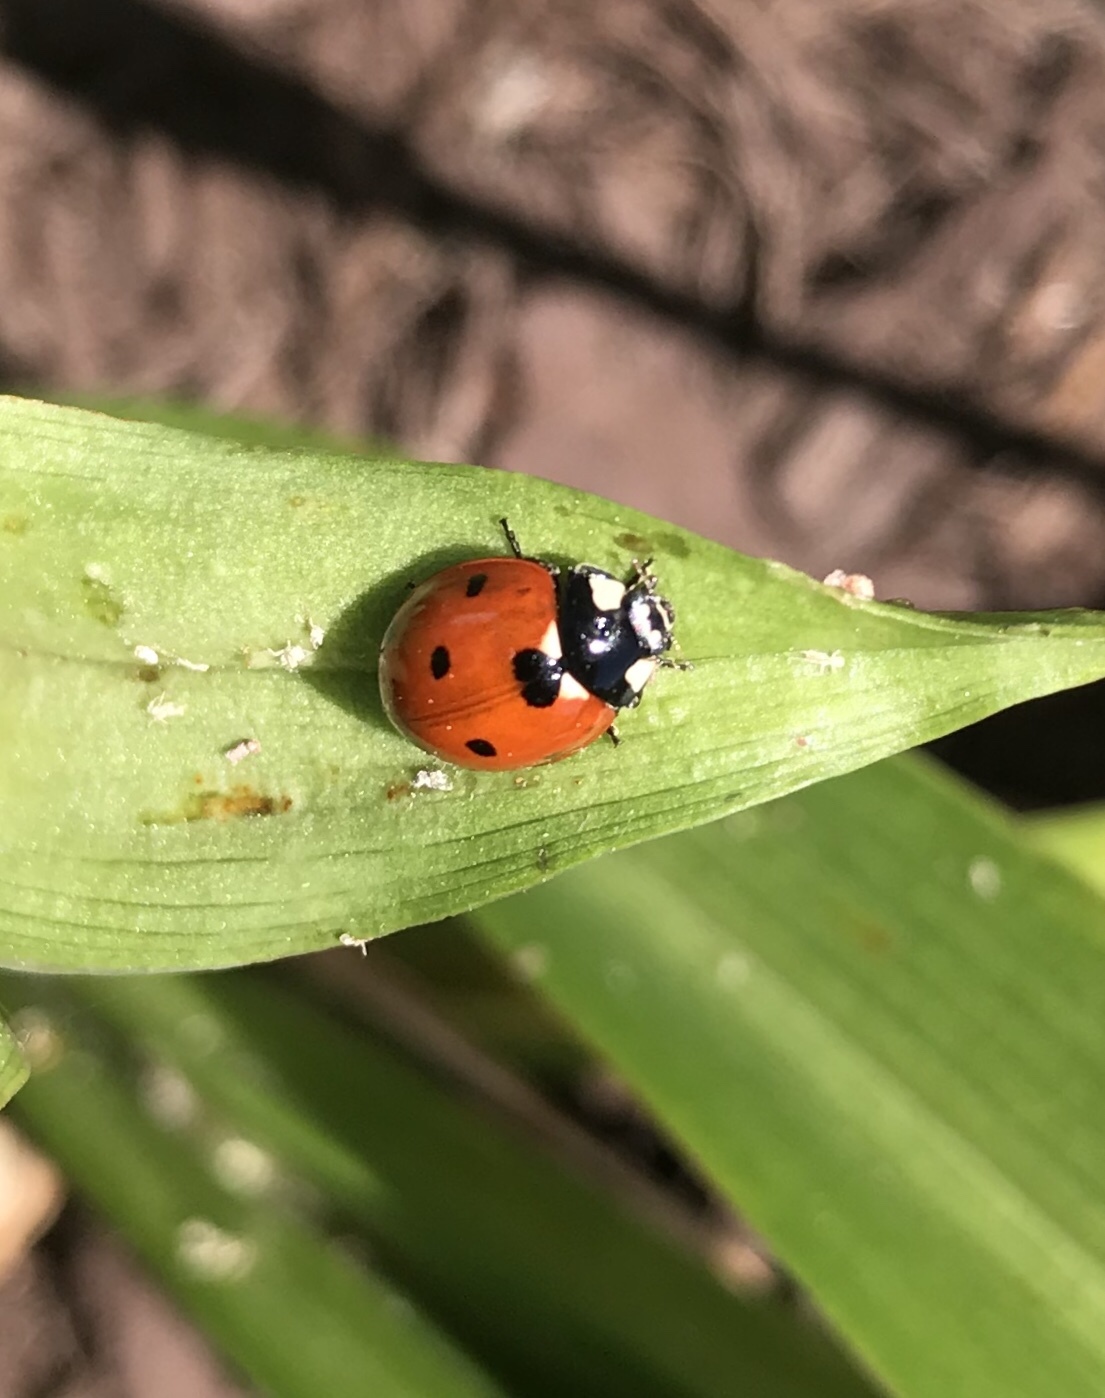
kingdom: Animalia
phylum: Arthropoda
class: Insecta
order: Coleoptera
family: Coccinellidae
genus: Coccinella
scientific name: Coccinella septempunctata
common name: Sevenspotted lady beetle
